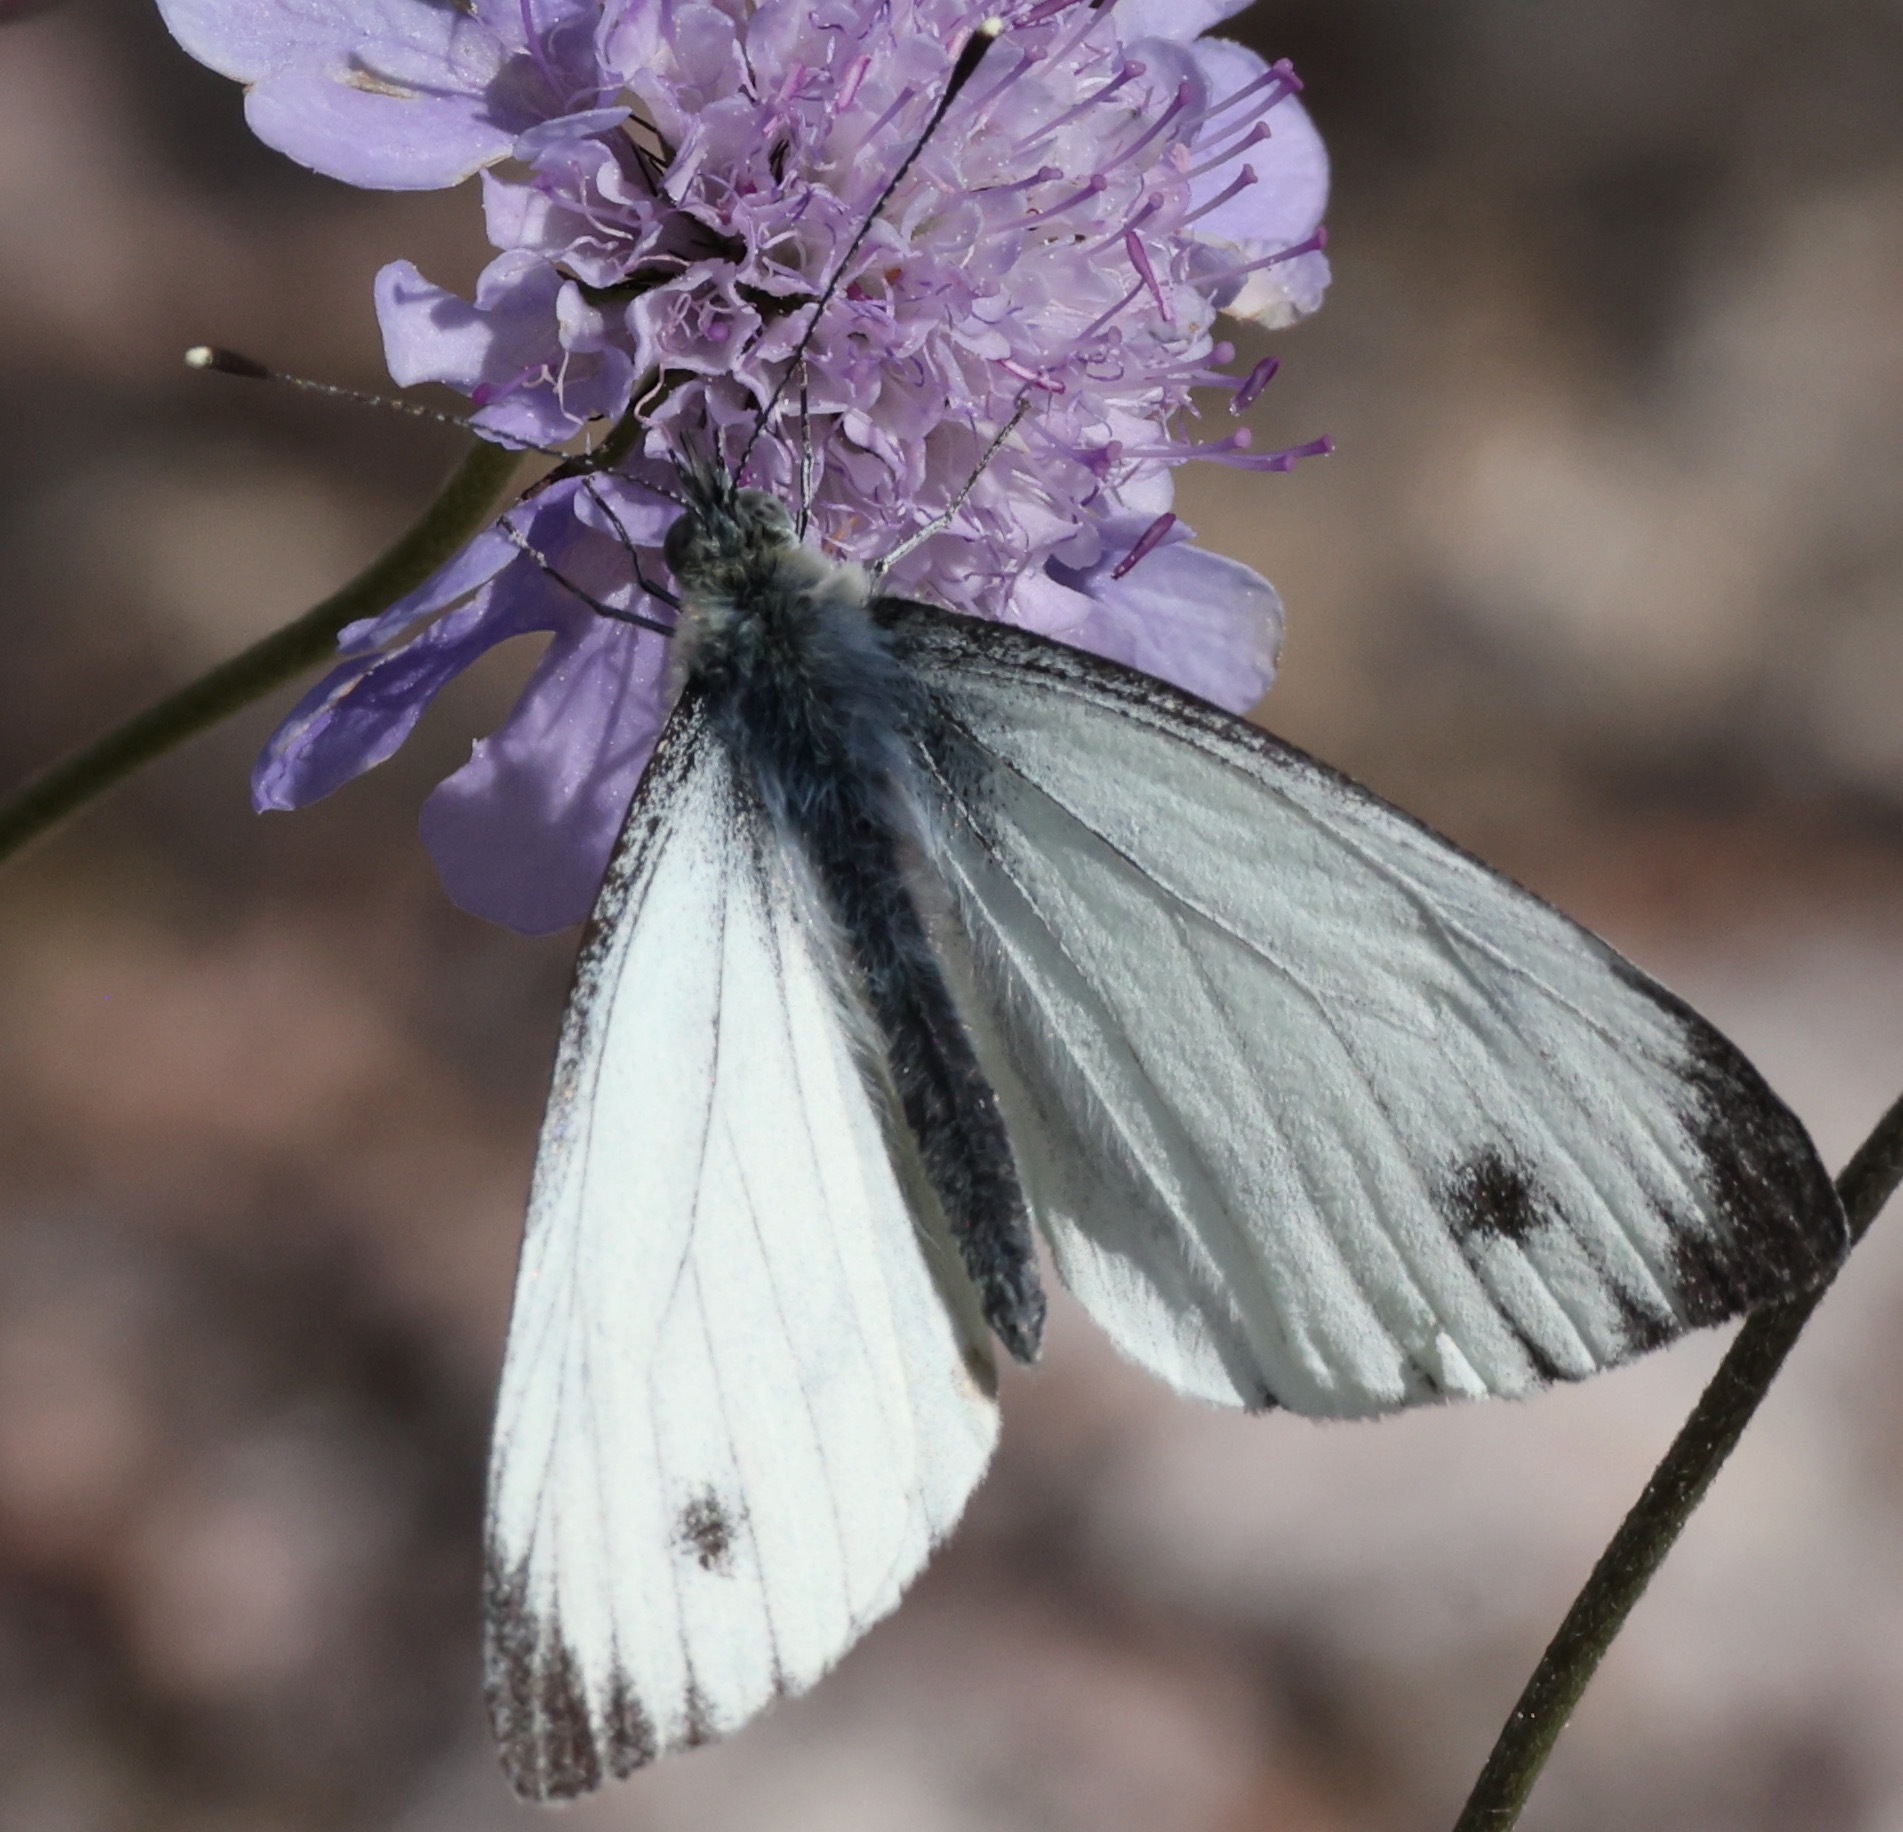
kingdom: Animalia
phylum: Arthropoda
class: Insecta
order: Lepidoptera
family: Pieridae
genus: Pieris
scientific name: Pieris napi
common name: Green-veined white
